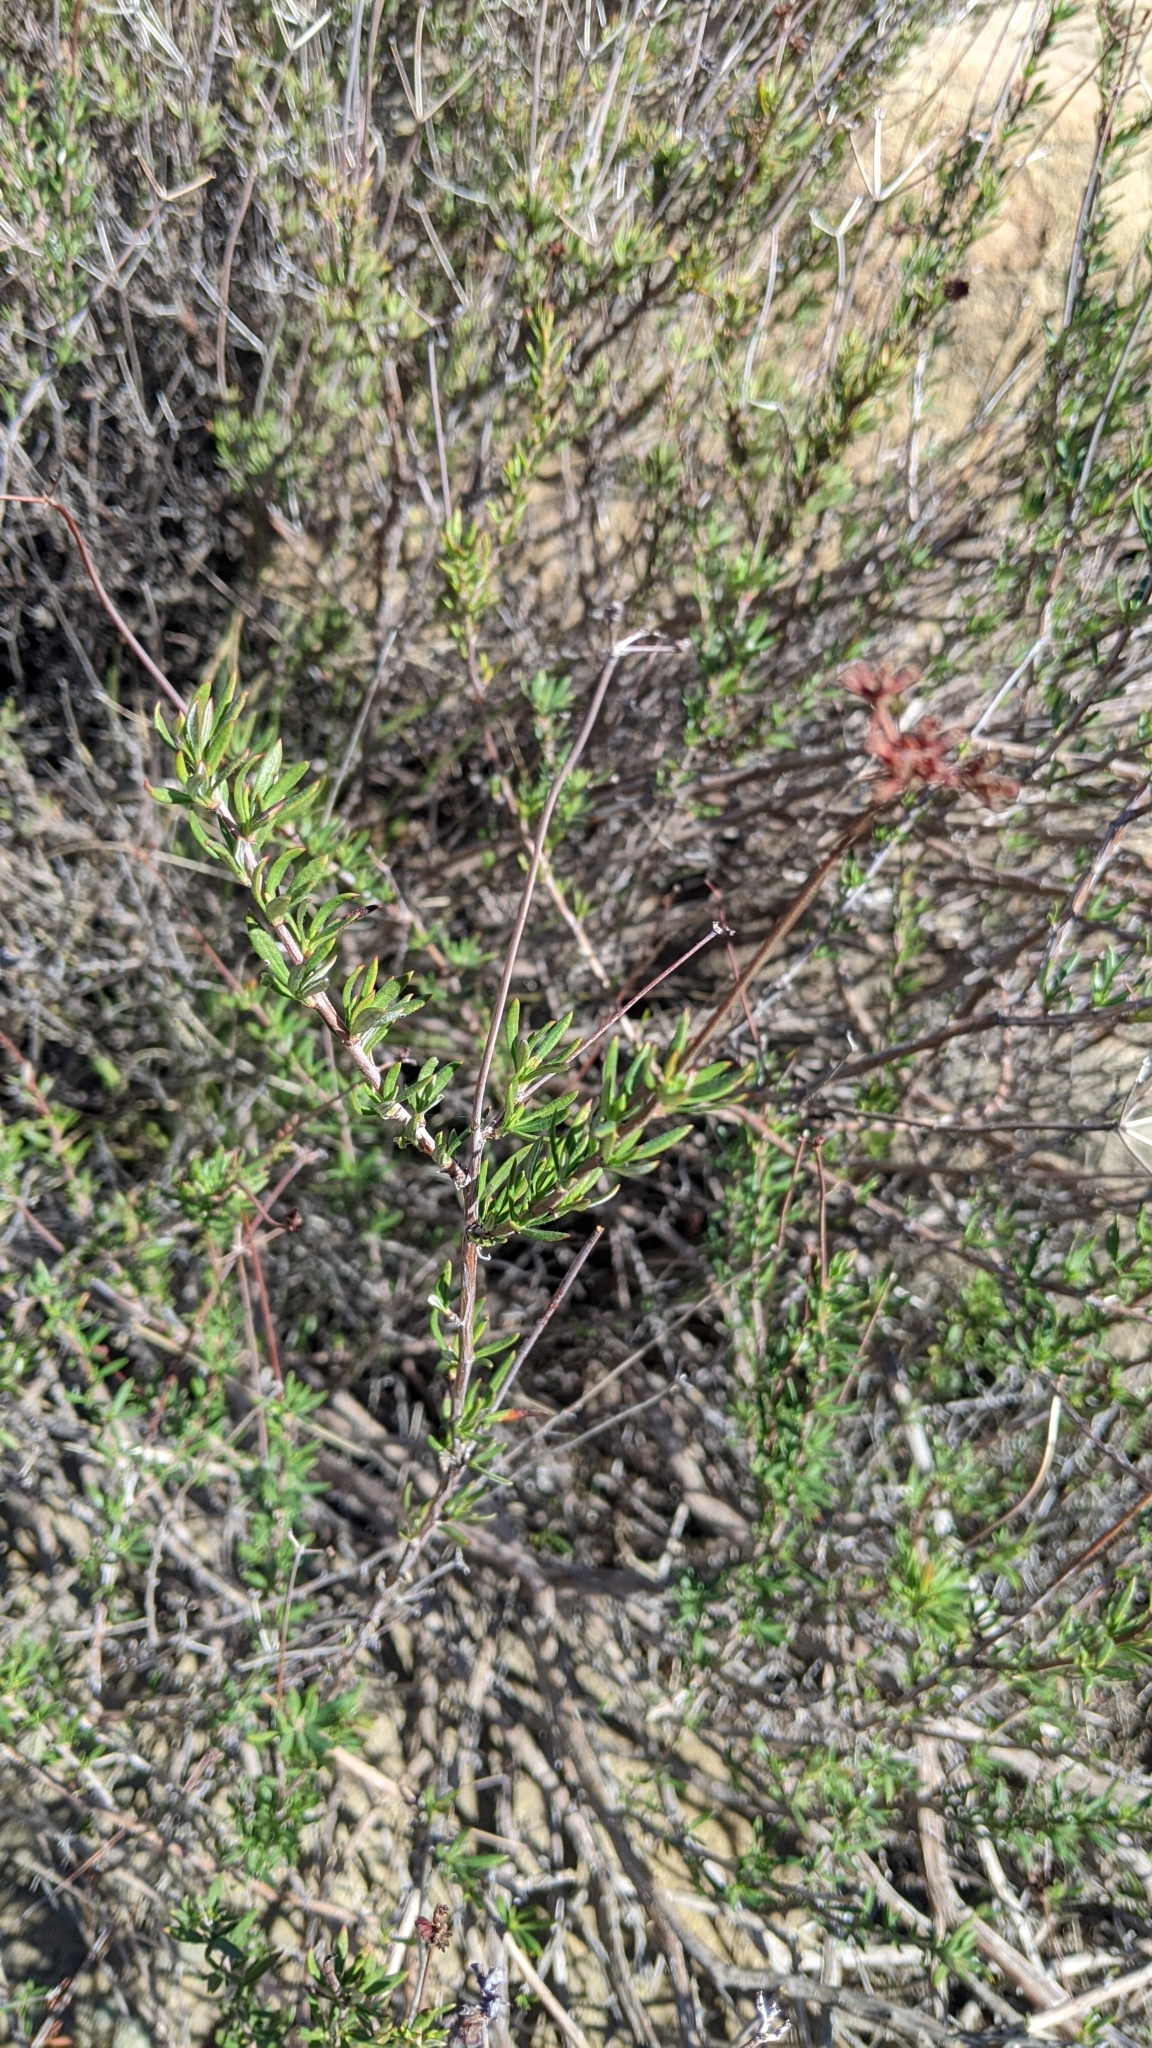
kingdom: Plantae
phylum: Tracheophyta
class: Magnoliopsida
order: Caryophyllales
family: Polygonaceae
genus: Eriogonum
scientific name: Eriogonum fasciculatum
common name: California wild buckwheat
